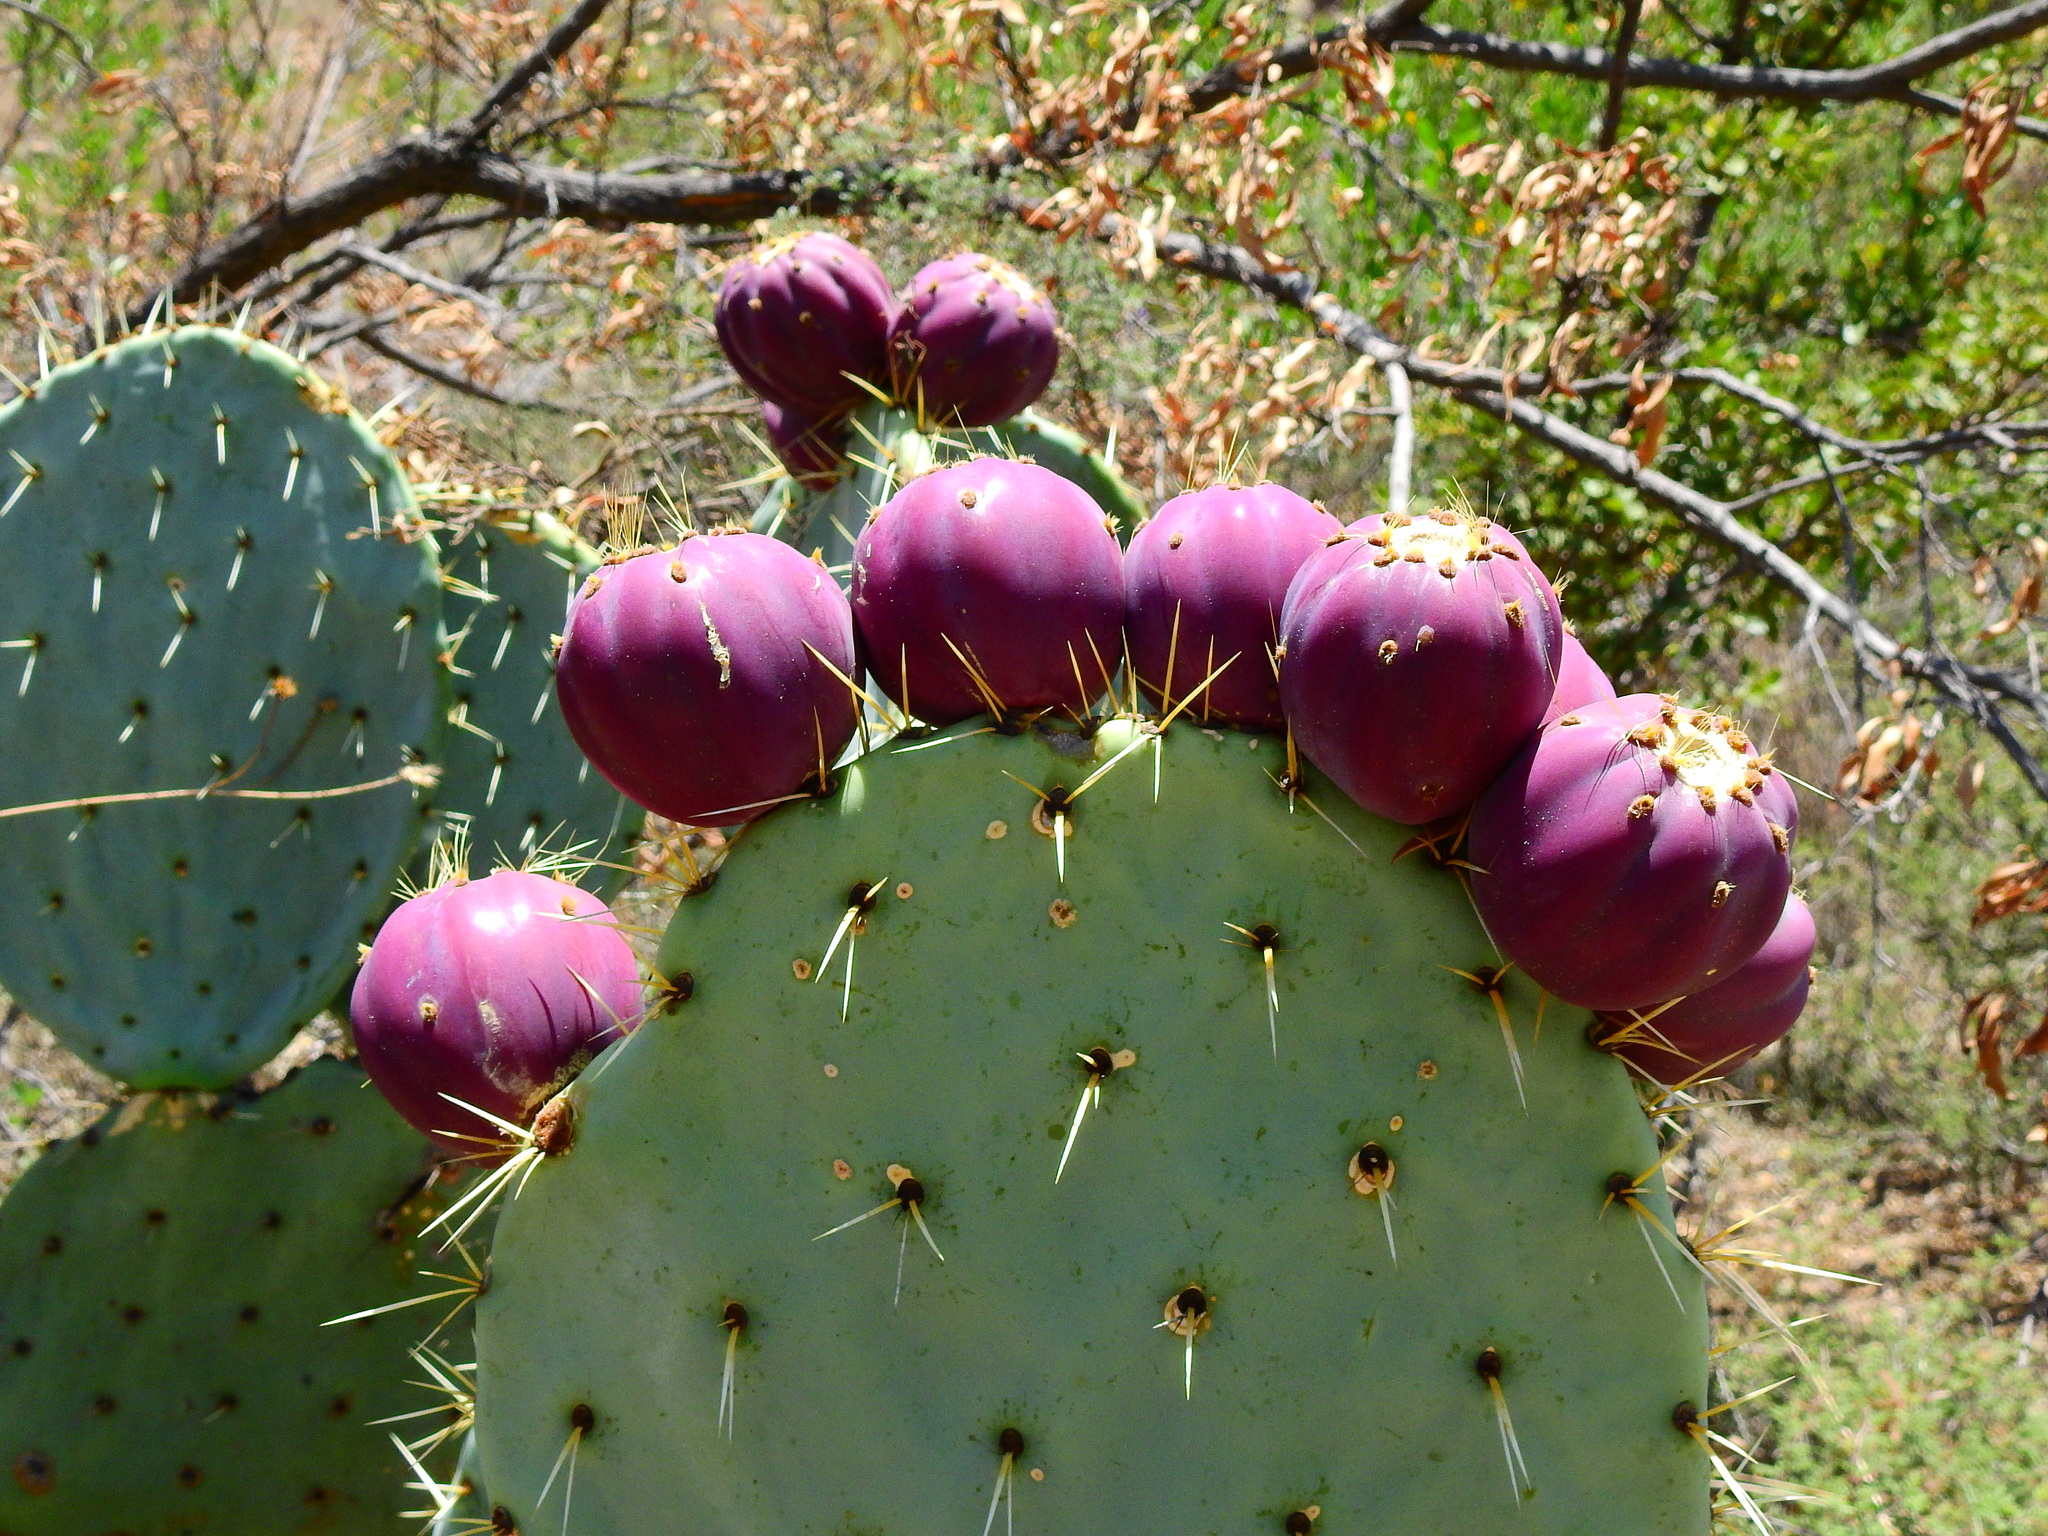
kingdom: Plantae
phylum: Tracheophyta
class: Magnoliopsida
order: Caryophyllales
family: Cactaceae
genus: Opuntia
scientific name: Opuntia robusta
